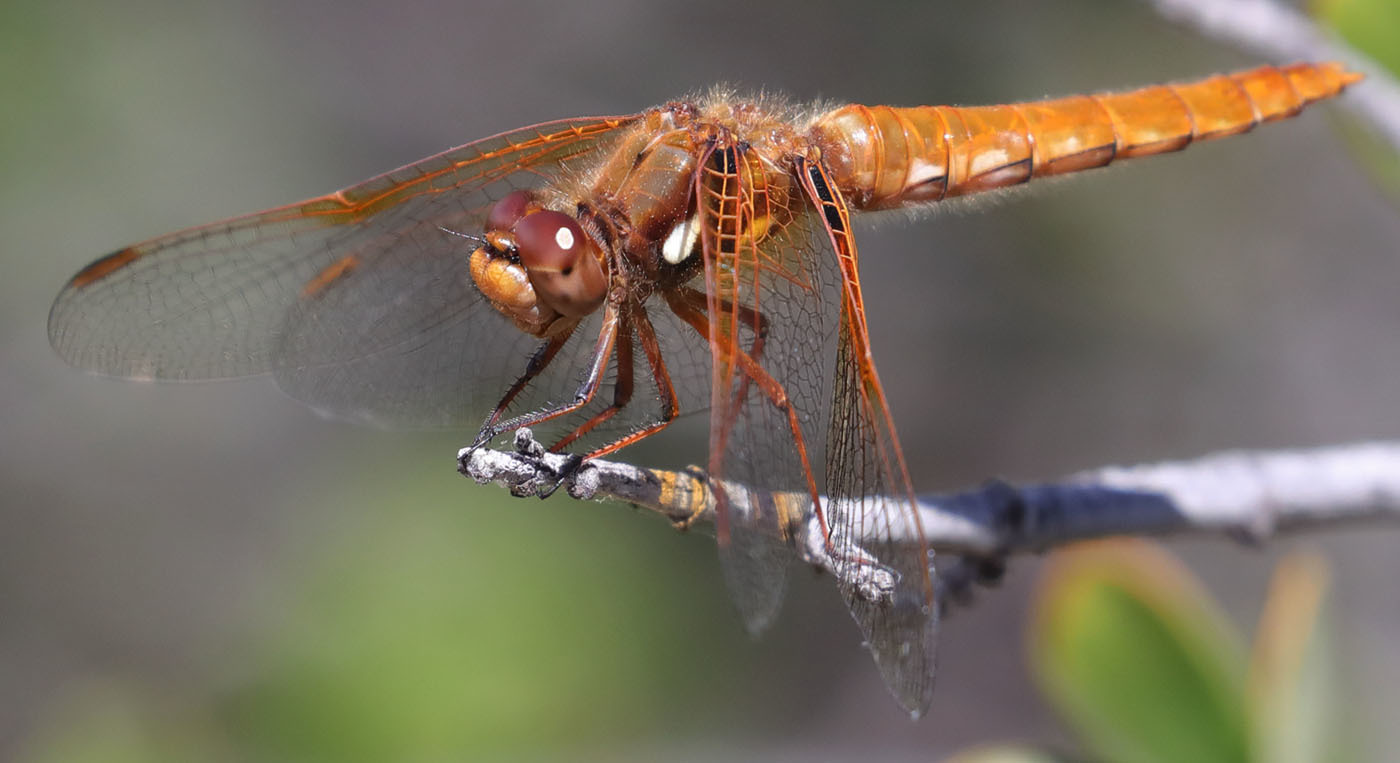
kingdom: Animalia
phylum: Arthropoda
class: Insecta
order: Odonata
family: Libellulidae
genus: Sympetrum
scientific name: Sympetrum illotum
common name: Cardinal meadowhawk
